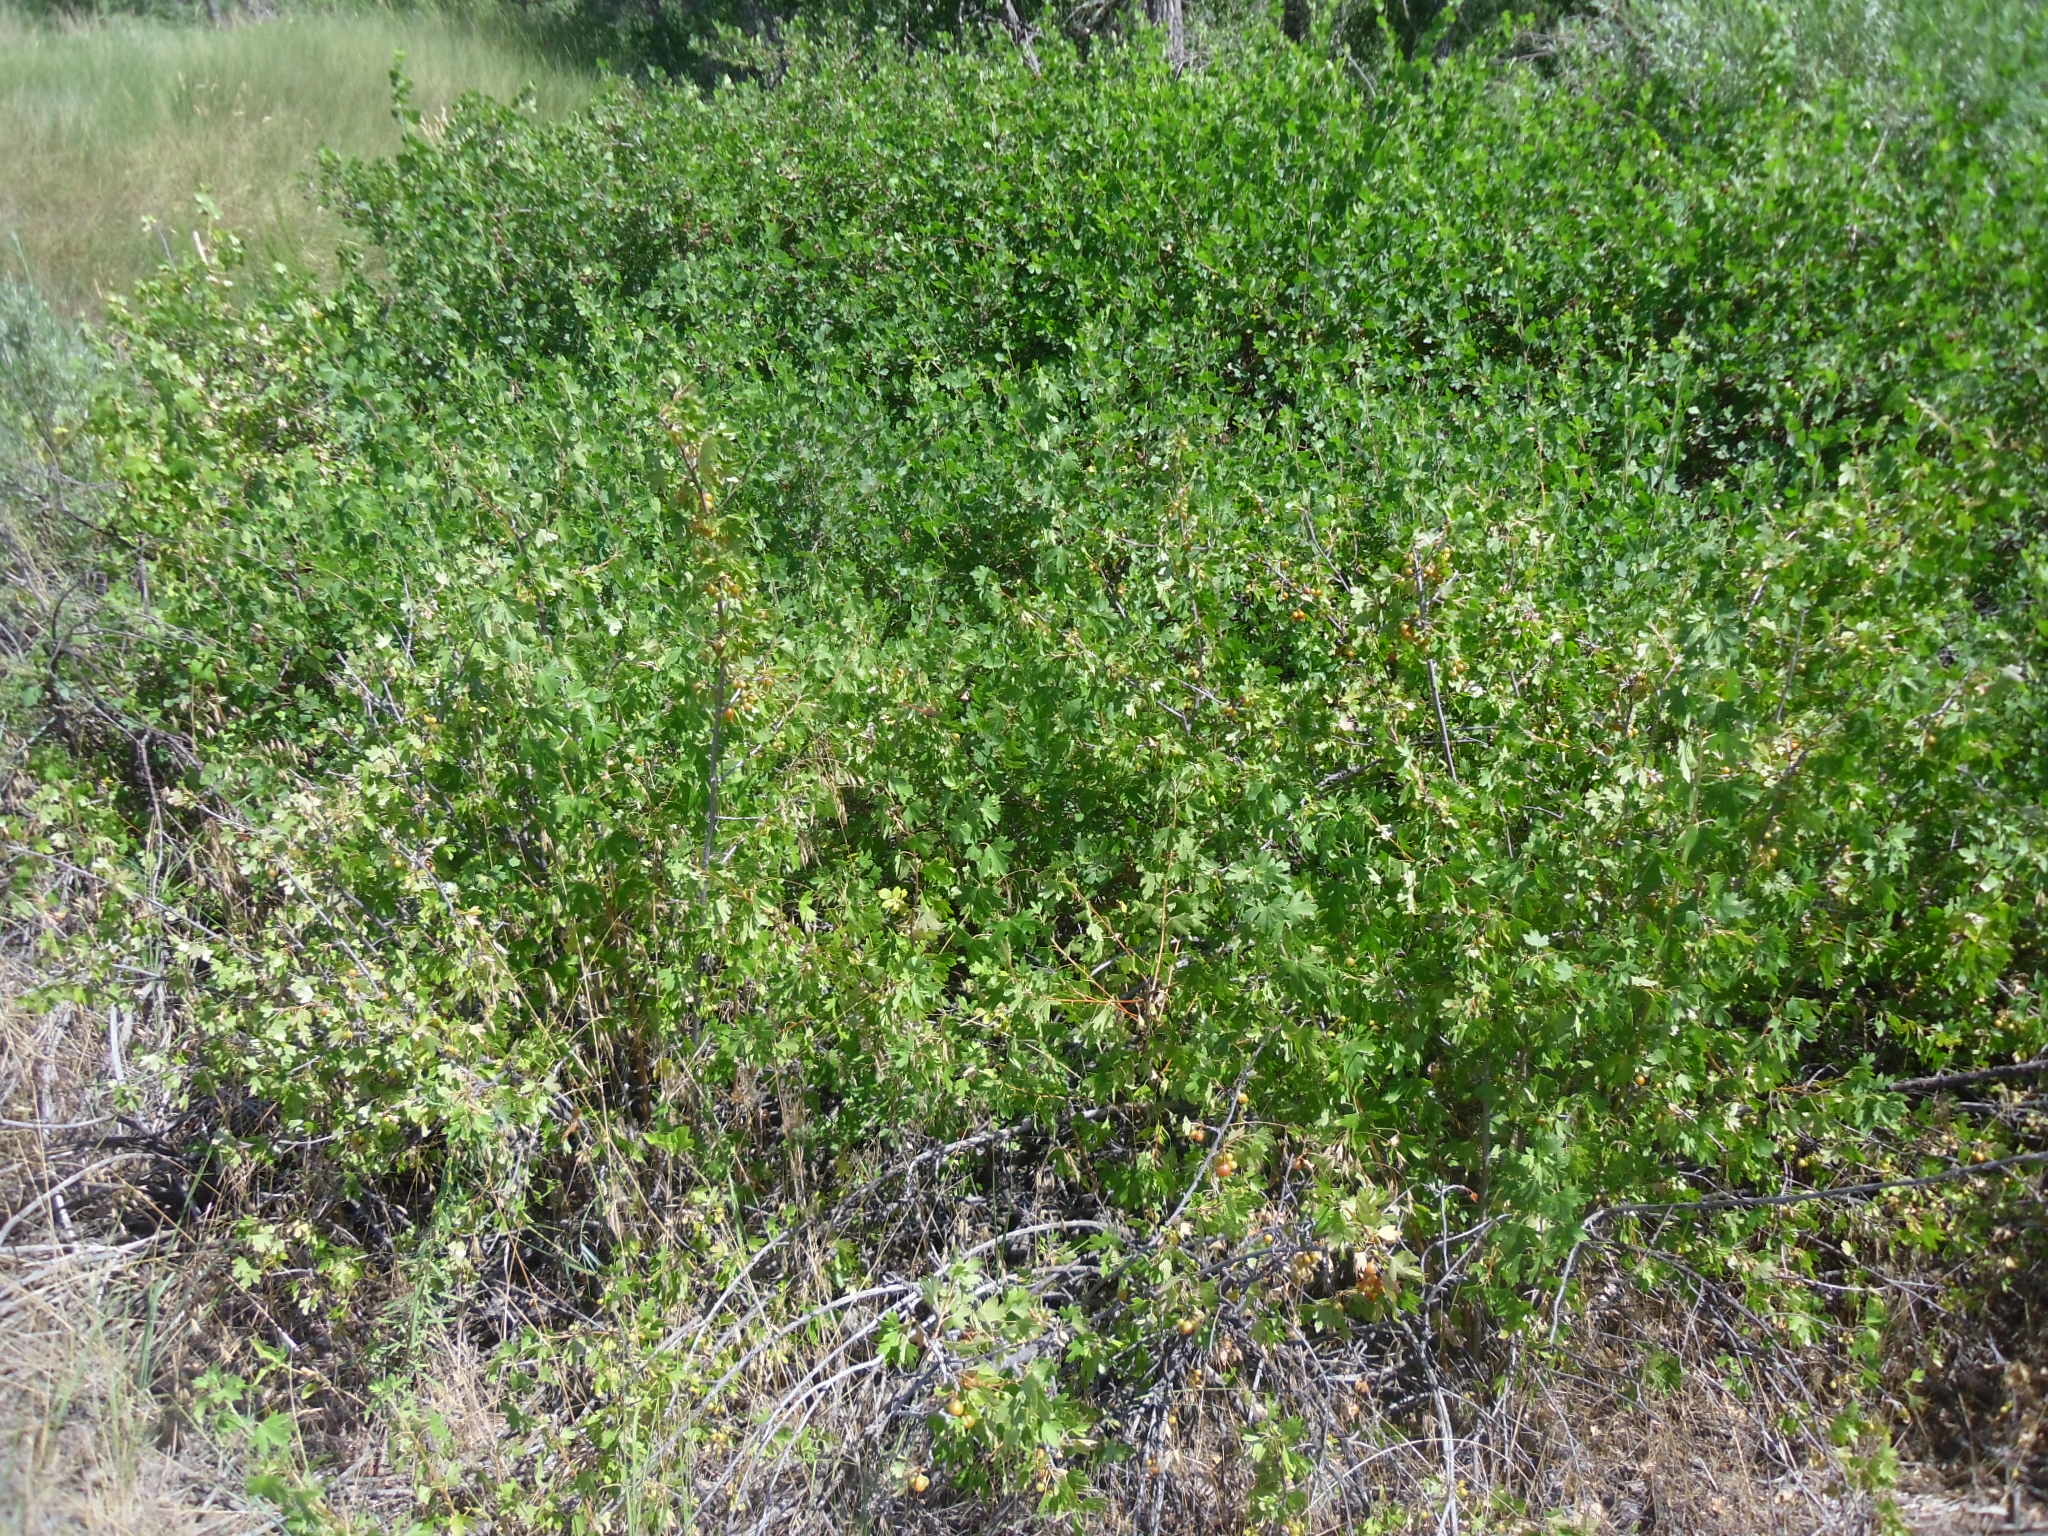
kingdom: Plantae
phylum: Tracheophyta
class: Magnoliopsida
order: Saxifragales
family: Grossulariaceae
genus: Ribes
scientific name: Ribes aureum
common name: Golden currant
